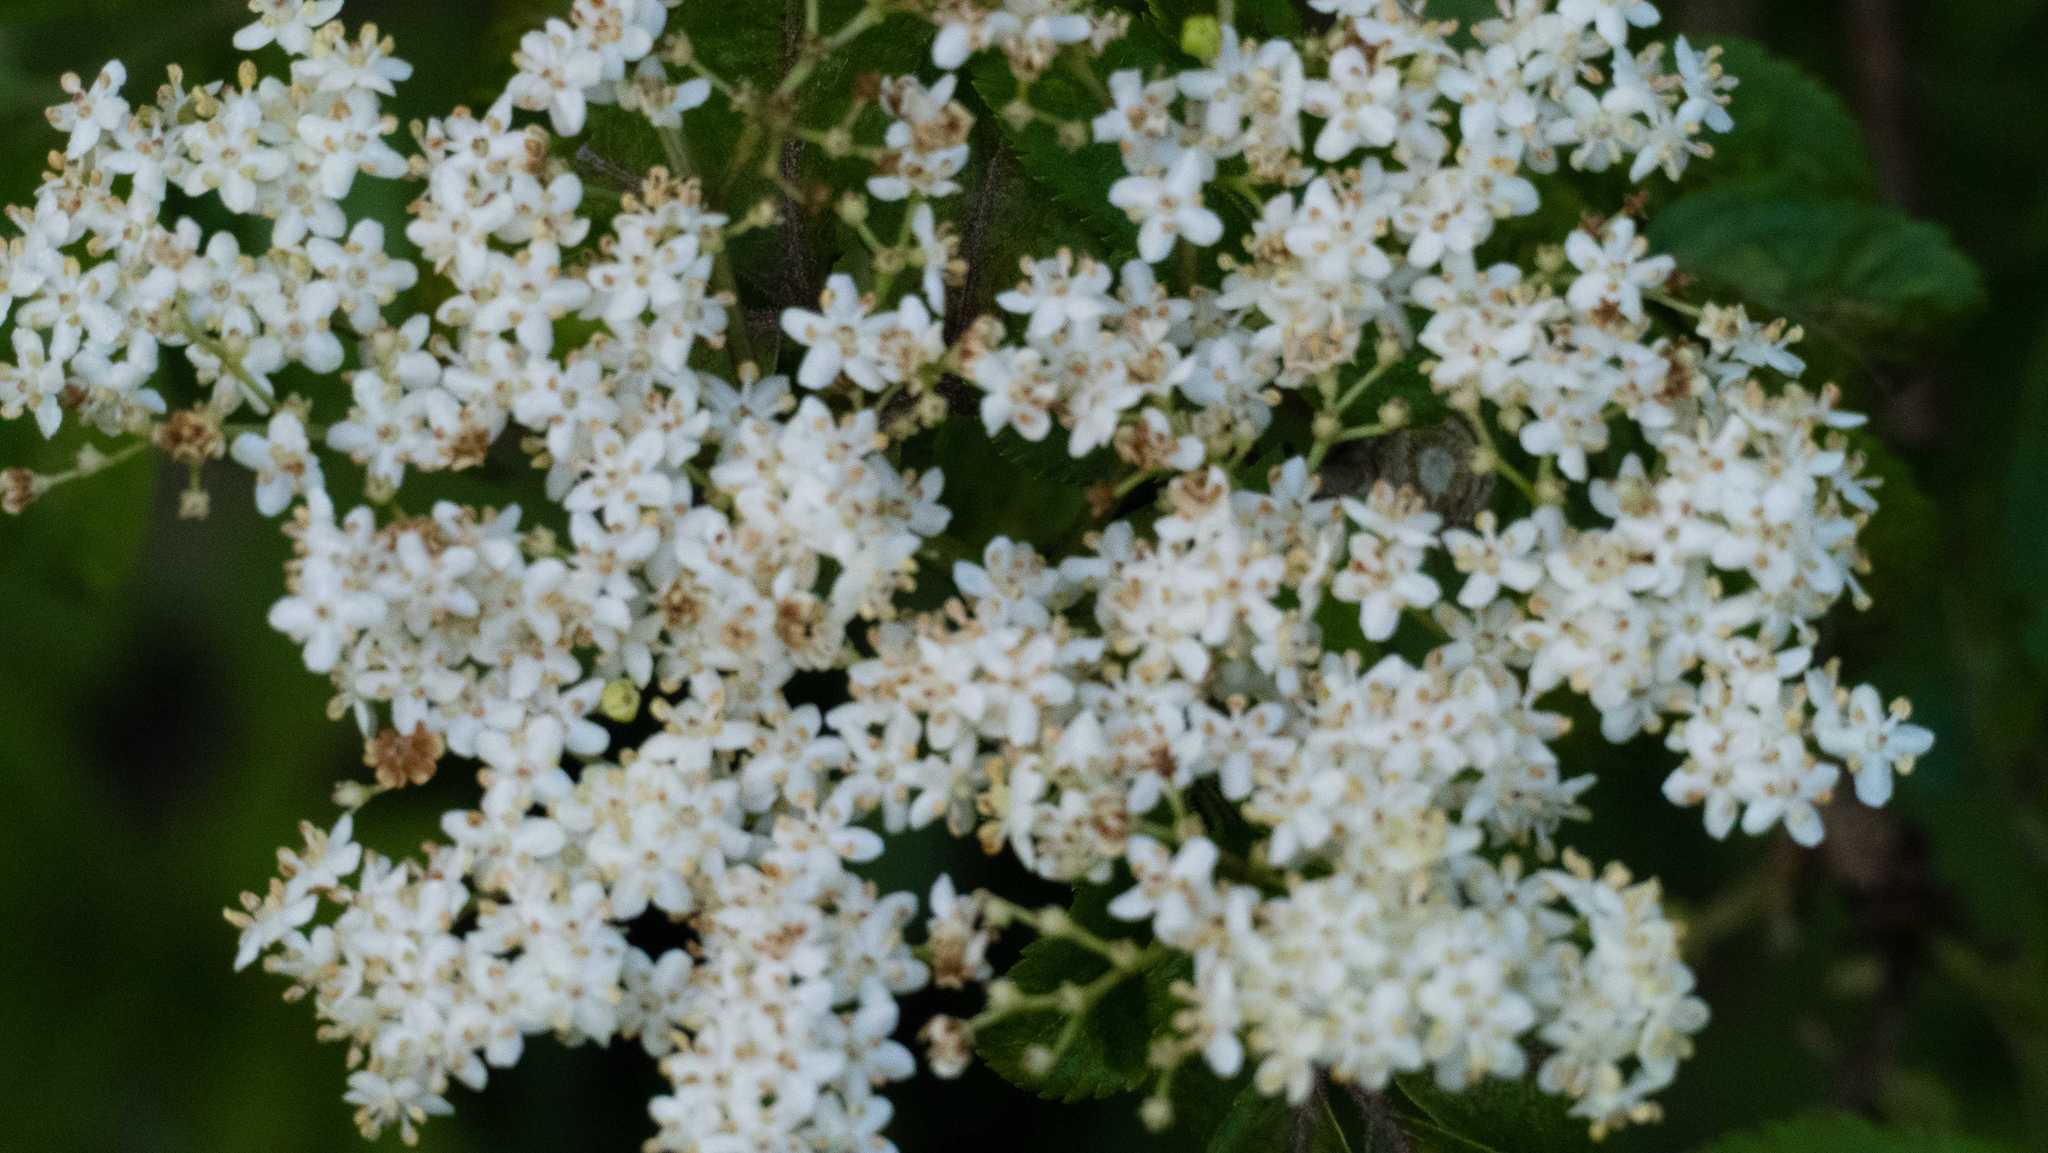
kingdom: Plantae
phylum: Tracheophyta
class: Magnoliopsida
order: Dipsacales
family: Viburnaceae
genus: Sambucus
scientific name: Sambucus nigra
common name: Elder
